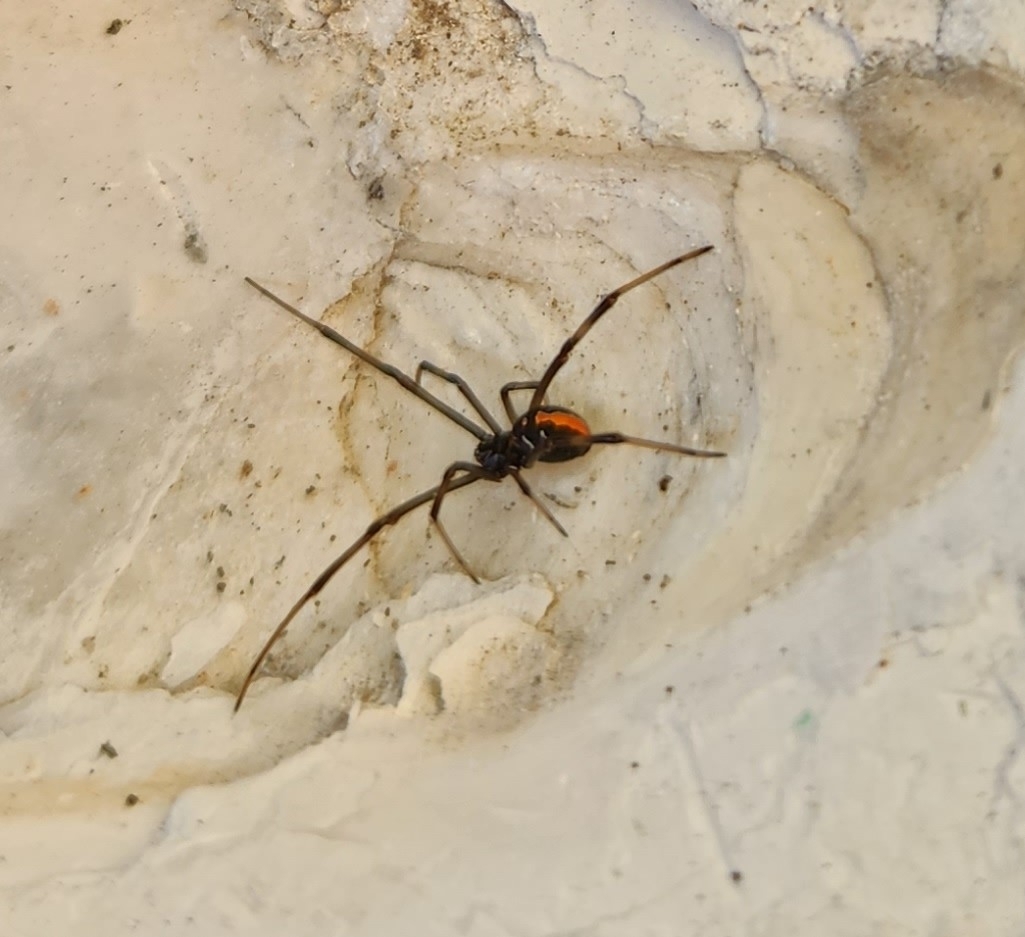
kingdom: Animalia
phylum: Arthropoda
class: Arachnida
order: Araneae
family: Theridiidae
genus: Latrodectus
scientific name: Latrodectus hasselti
